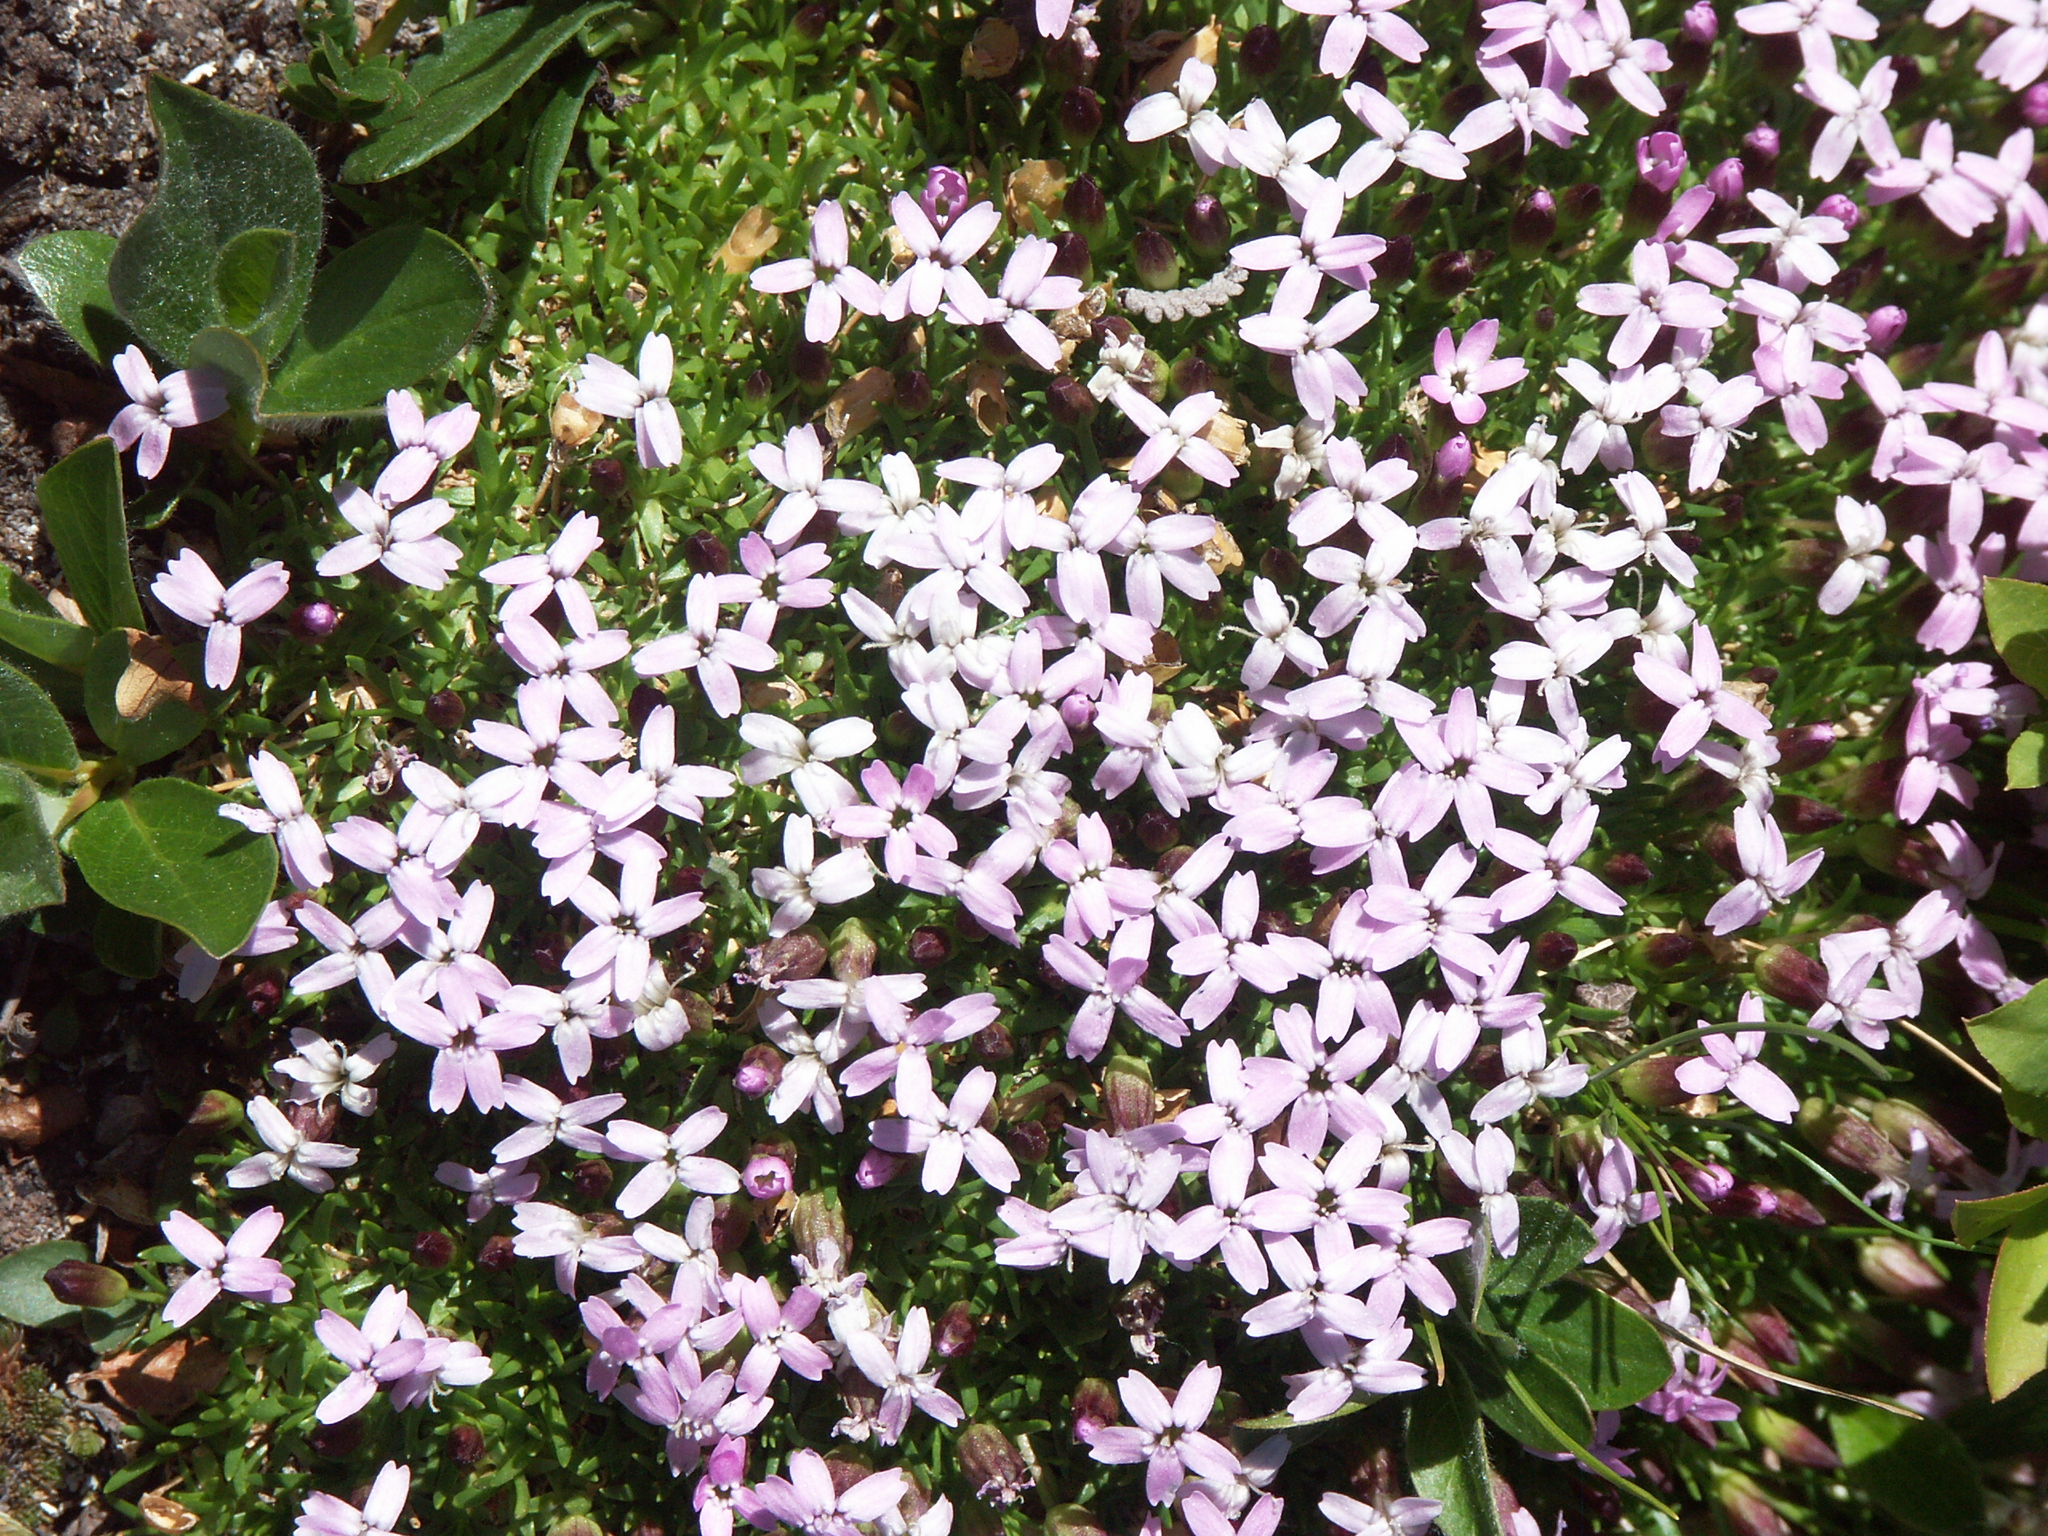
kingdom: Plantae
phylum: Tracheophyta
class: Magnoliopsida
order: Caryophyllales
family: Caryophyllaceae
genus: Silene
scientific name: Silene acaulis
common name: Moss campion
